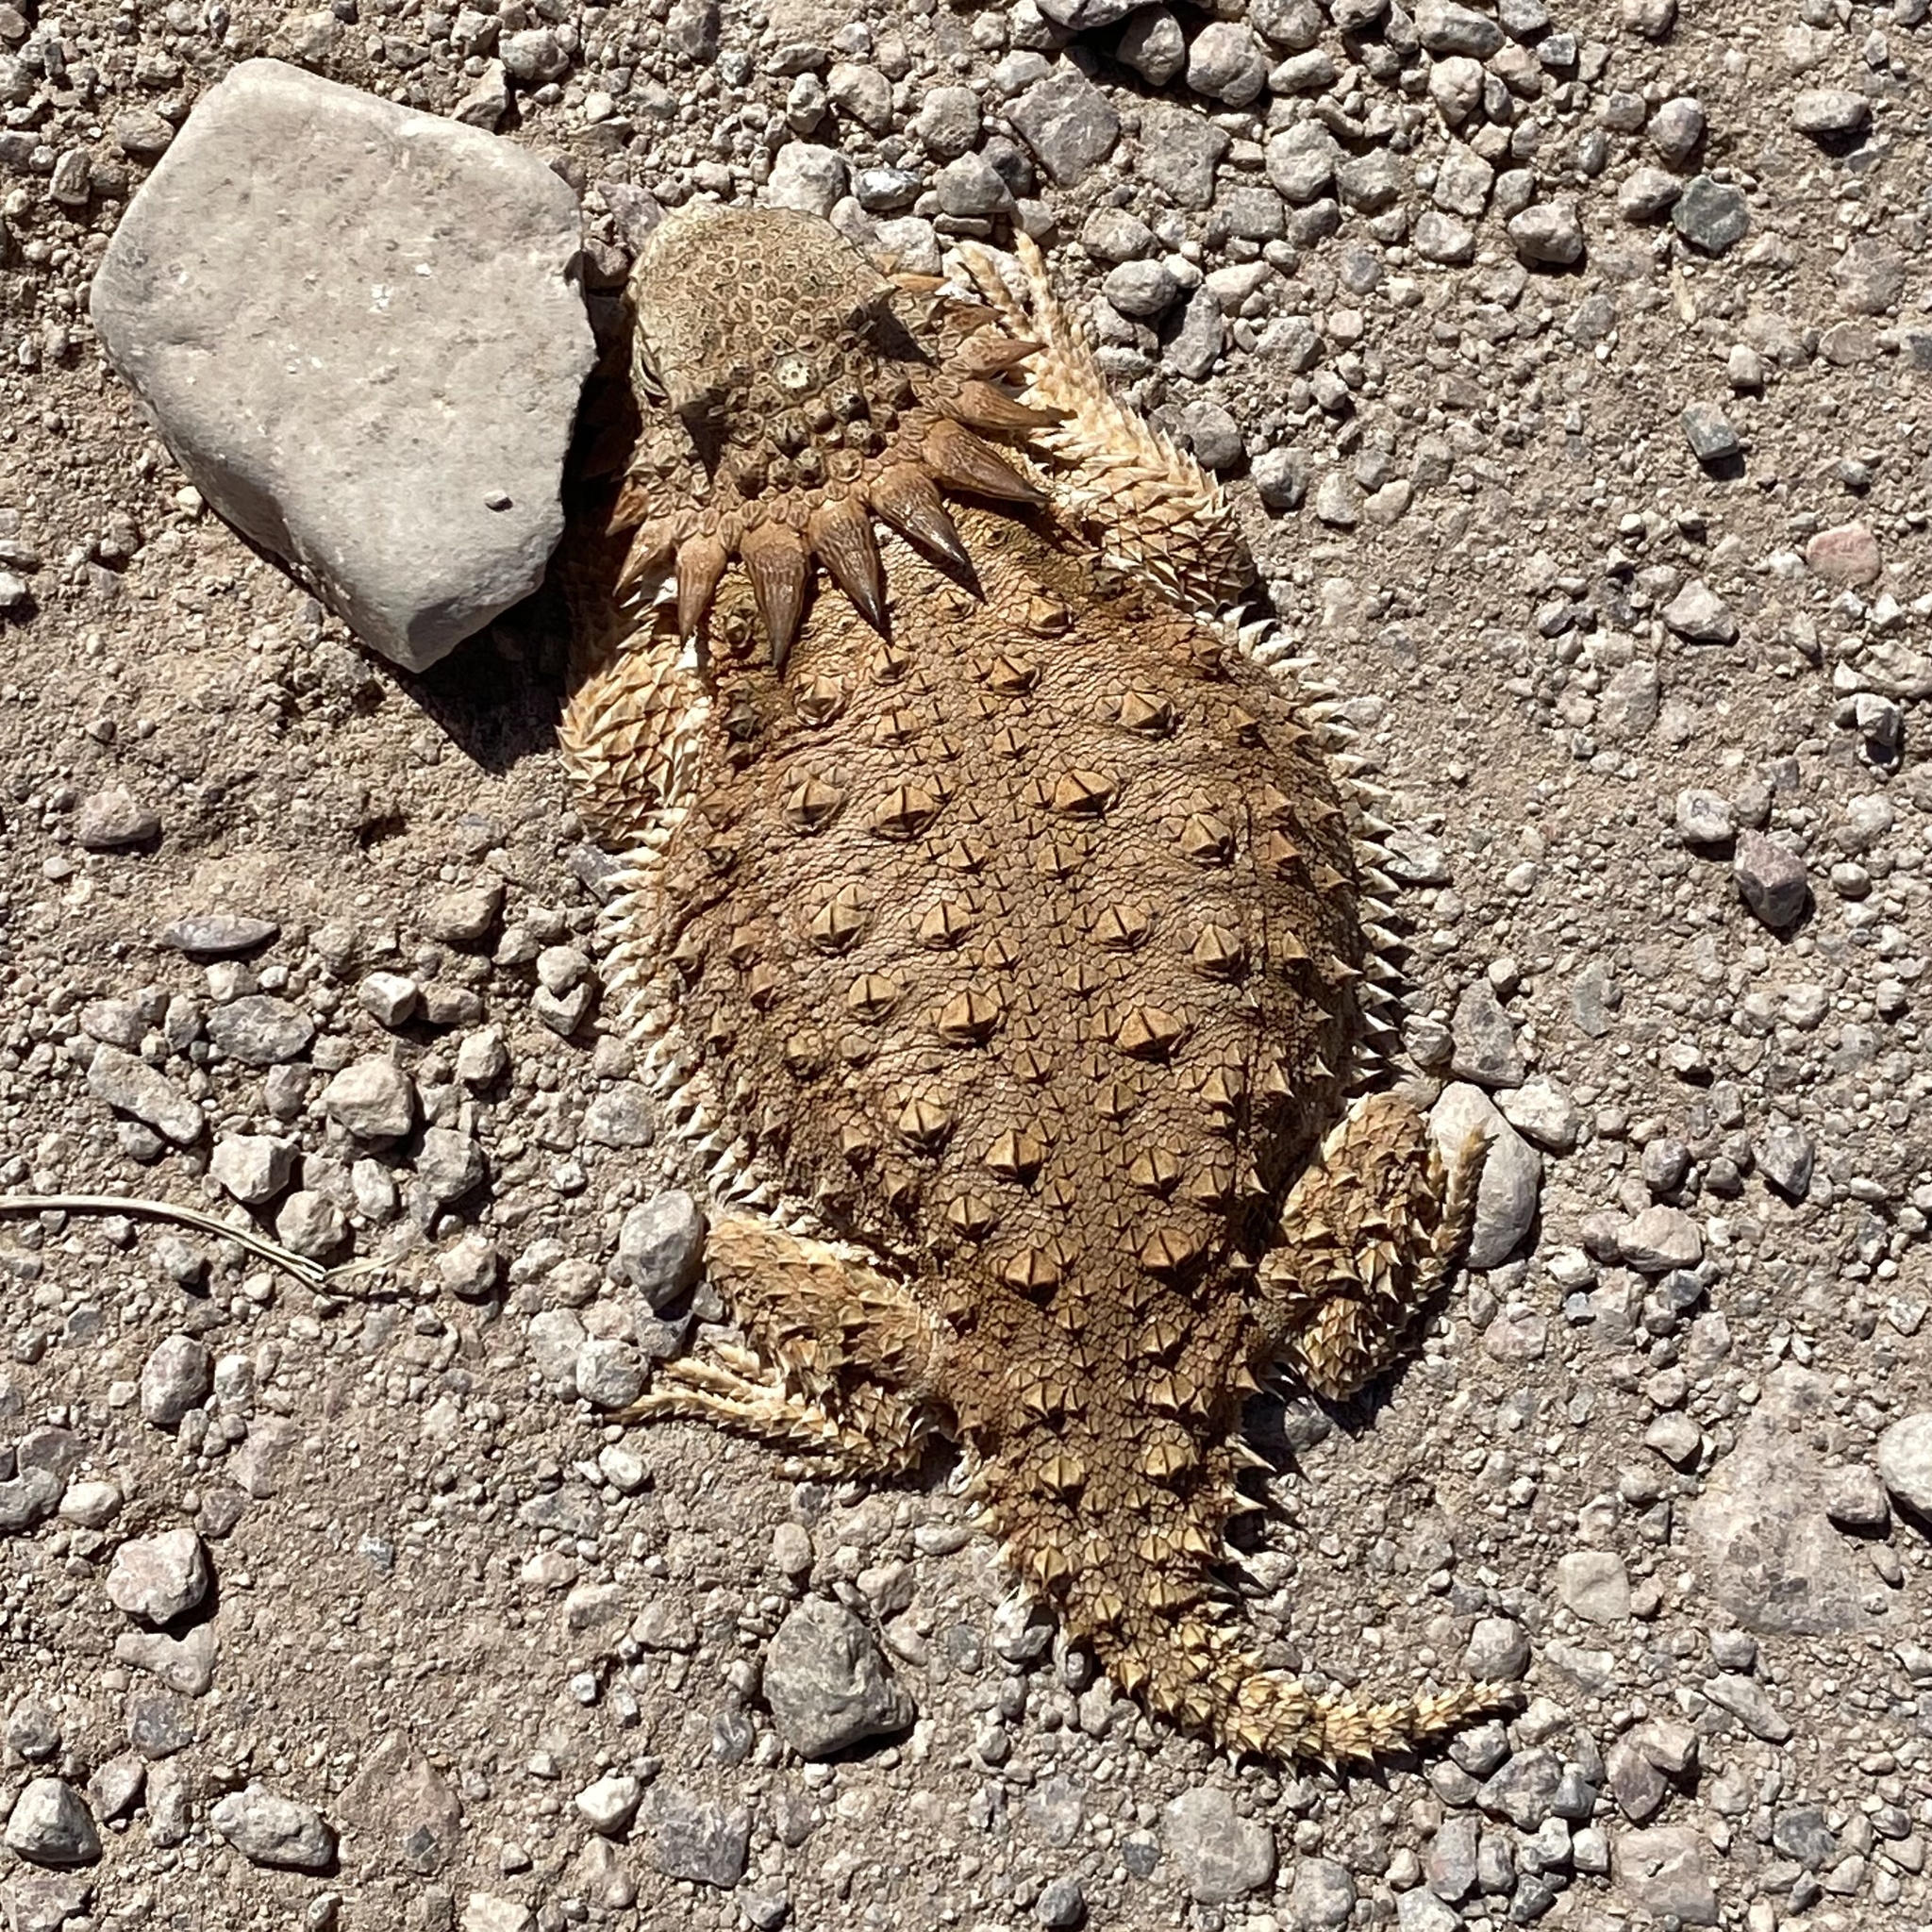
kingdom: Animalia
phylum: Chordata
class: Squamata
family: Phrynosomatidae
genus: Phrynosoma
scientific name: Phrynosoma solare
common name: Regal horned lizard
